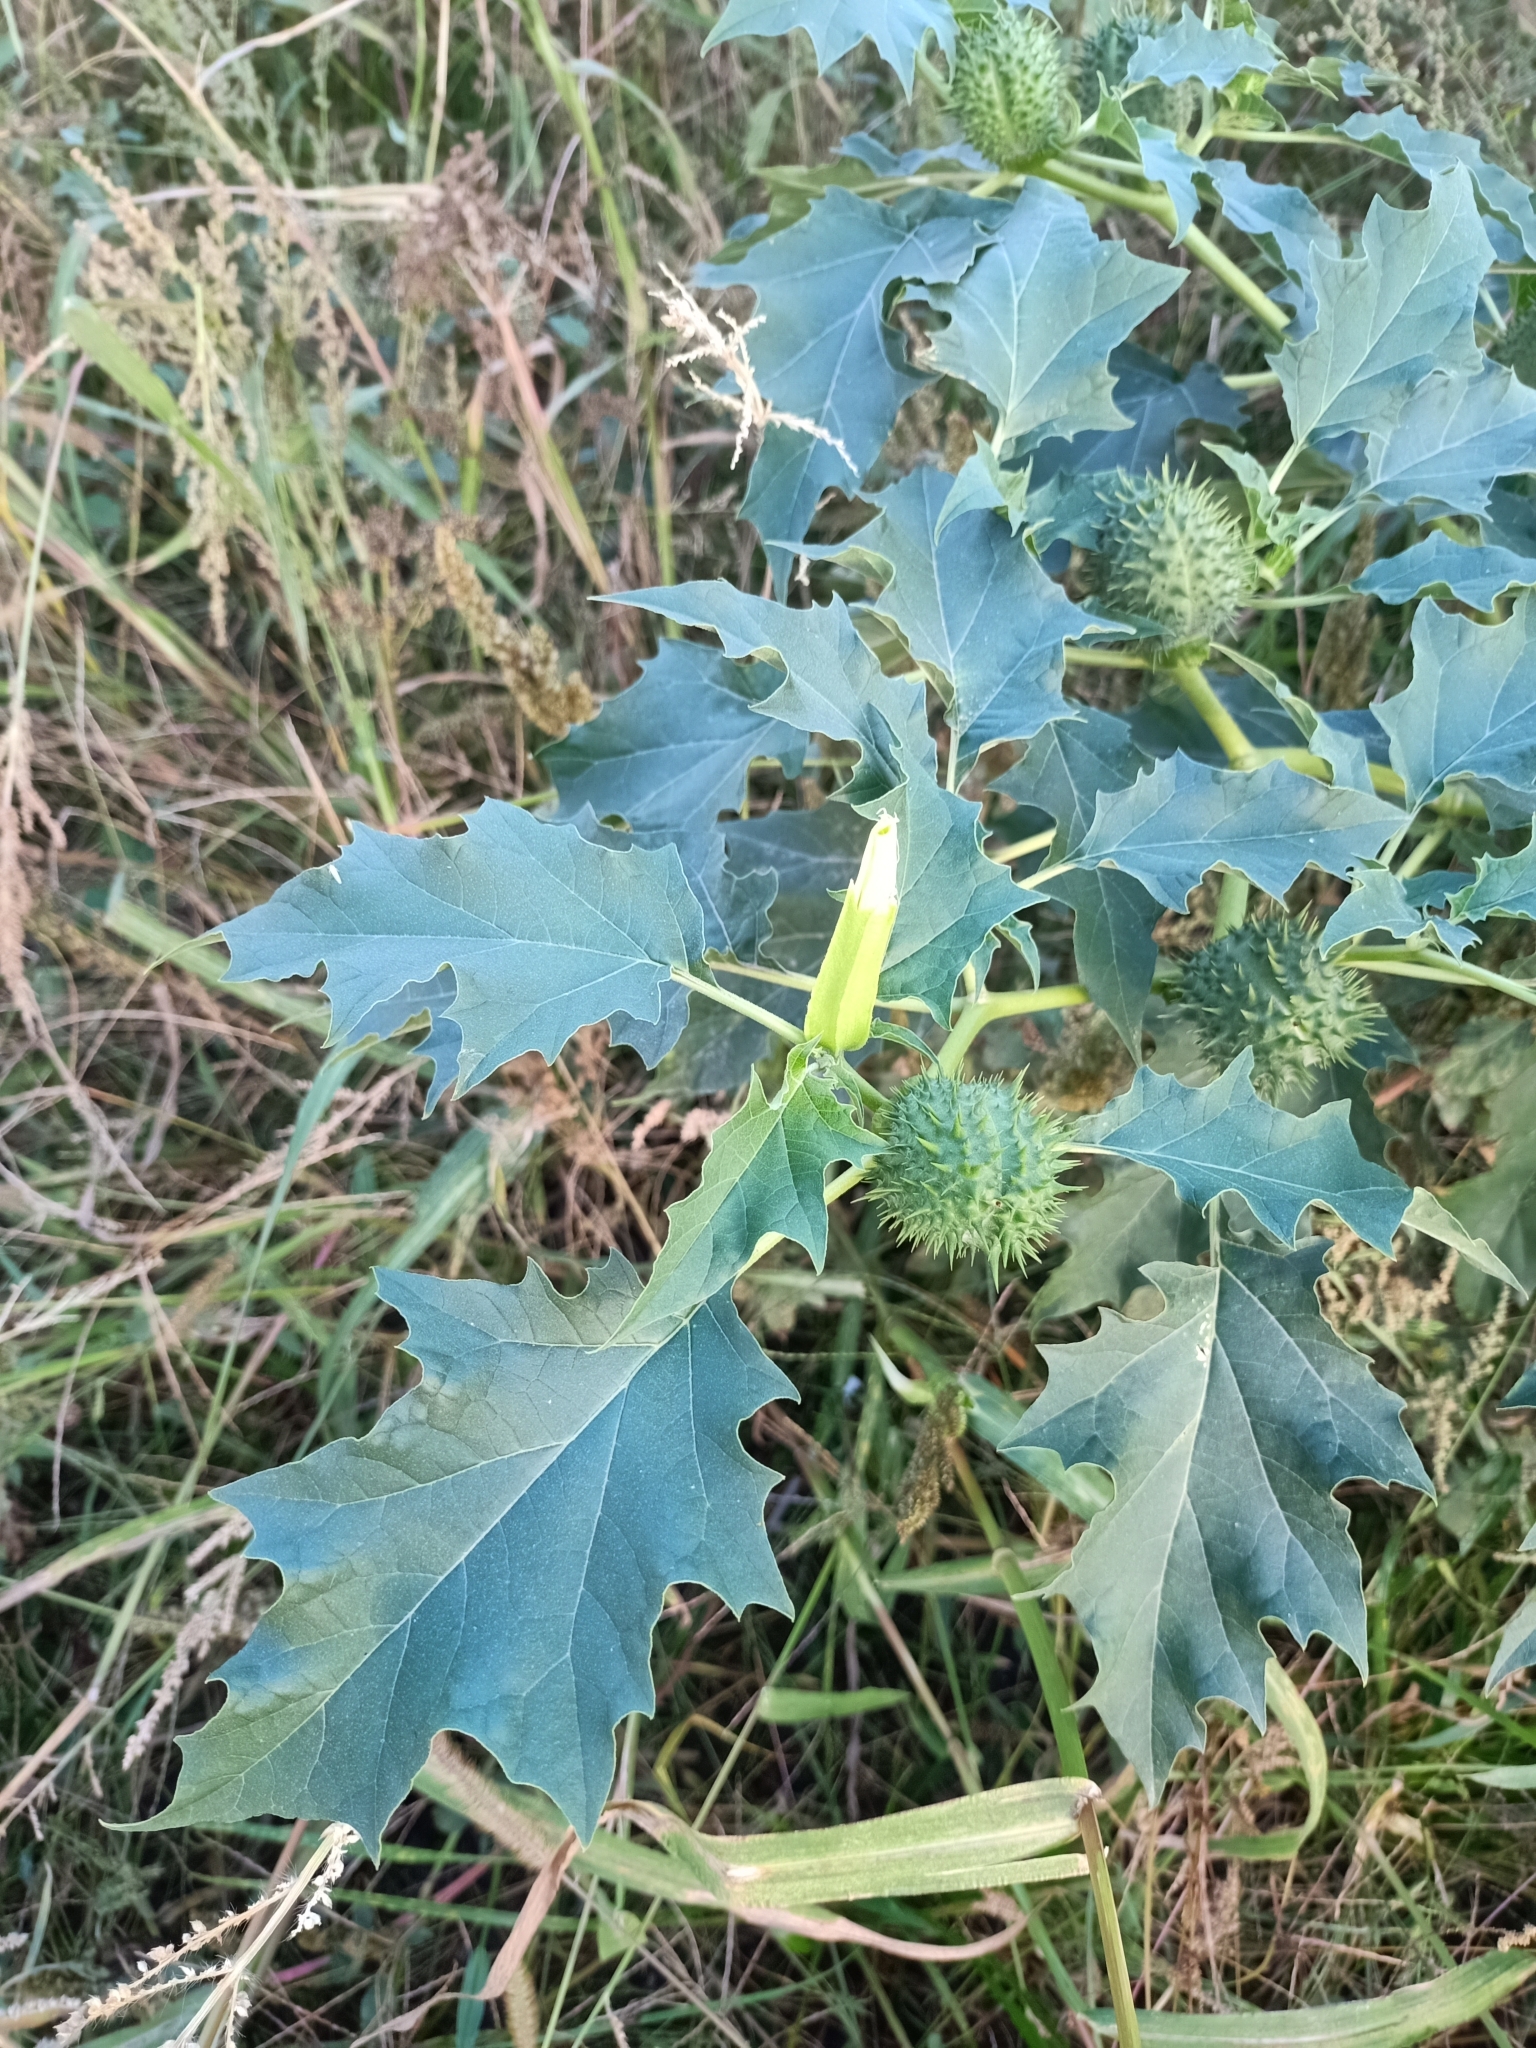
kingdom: Plantae
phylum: Tracheophyta
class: Magnoliopsida
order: Solanales
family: Solanaceae
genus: Datura
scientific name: Datura stramonium
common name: Thorn-apple
